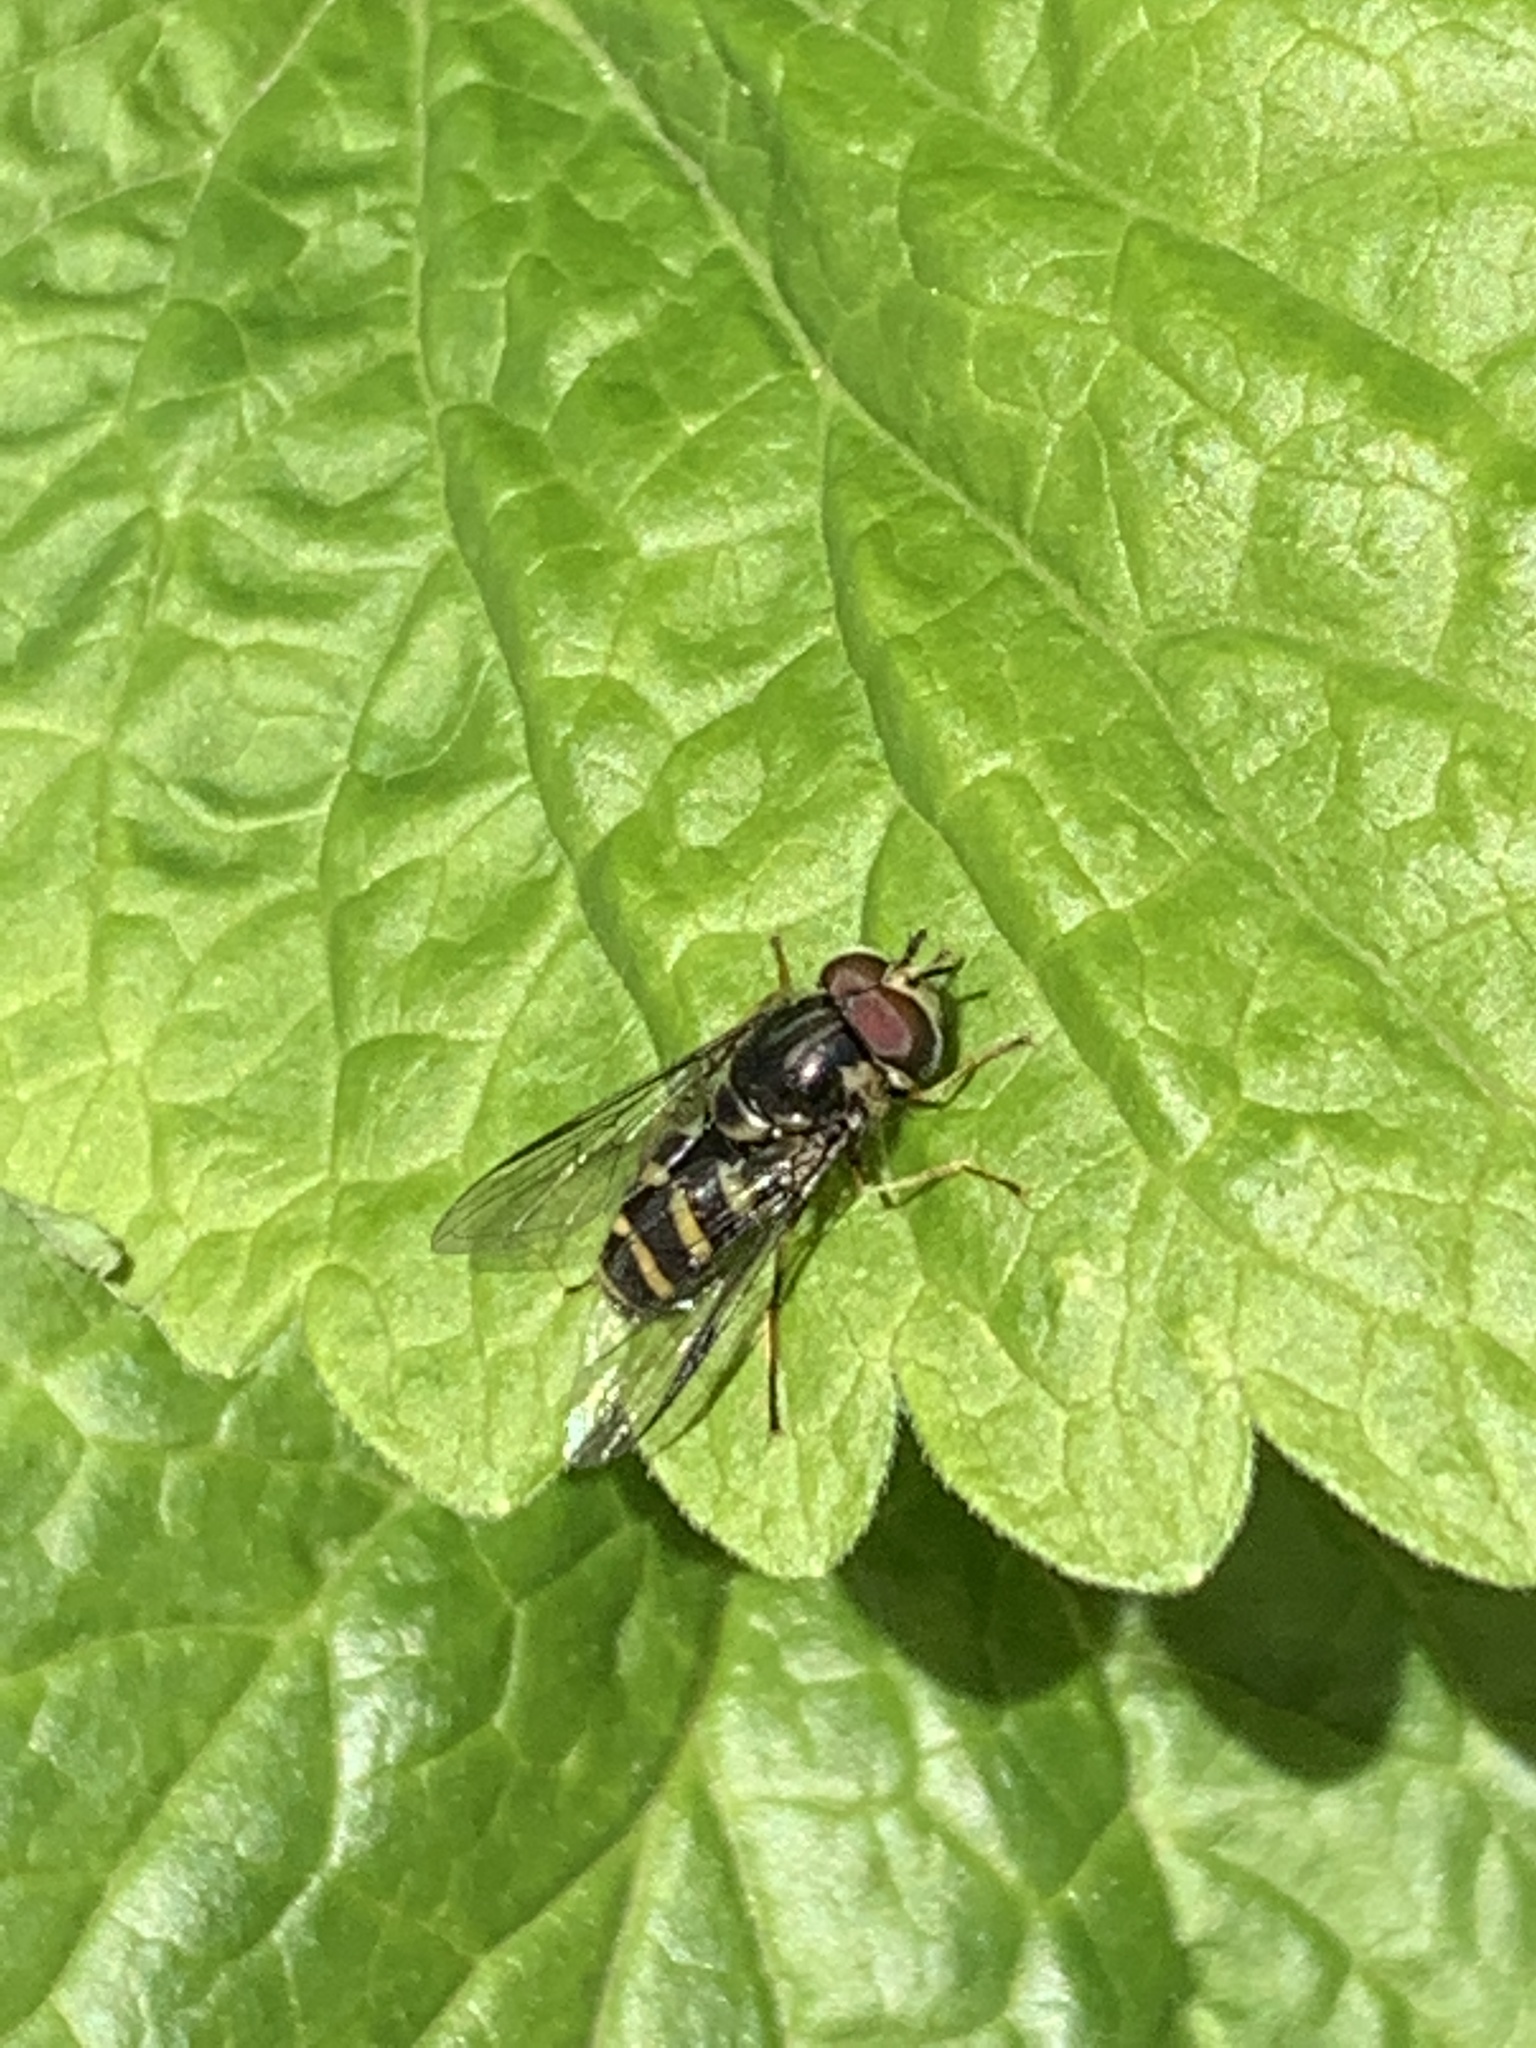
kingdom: Animalia
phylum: Arthropoda
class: Insecta
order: Diptera
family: Syrphidae
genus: Dasysyrphus
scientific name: Dasysyrphus albostriatus
